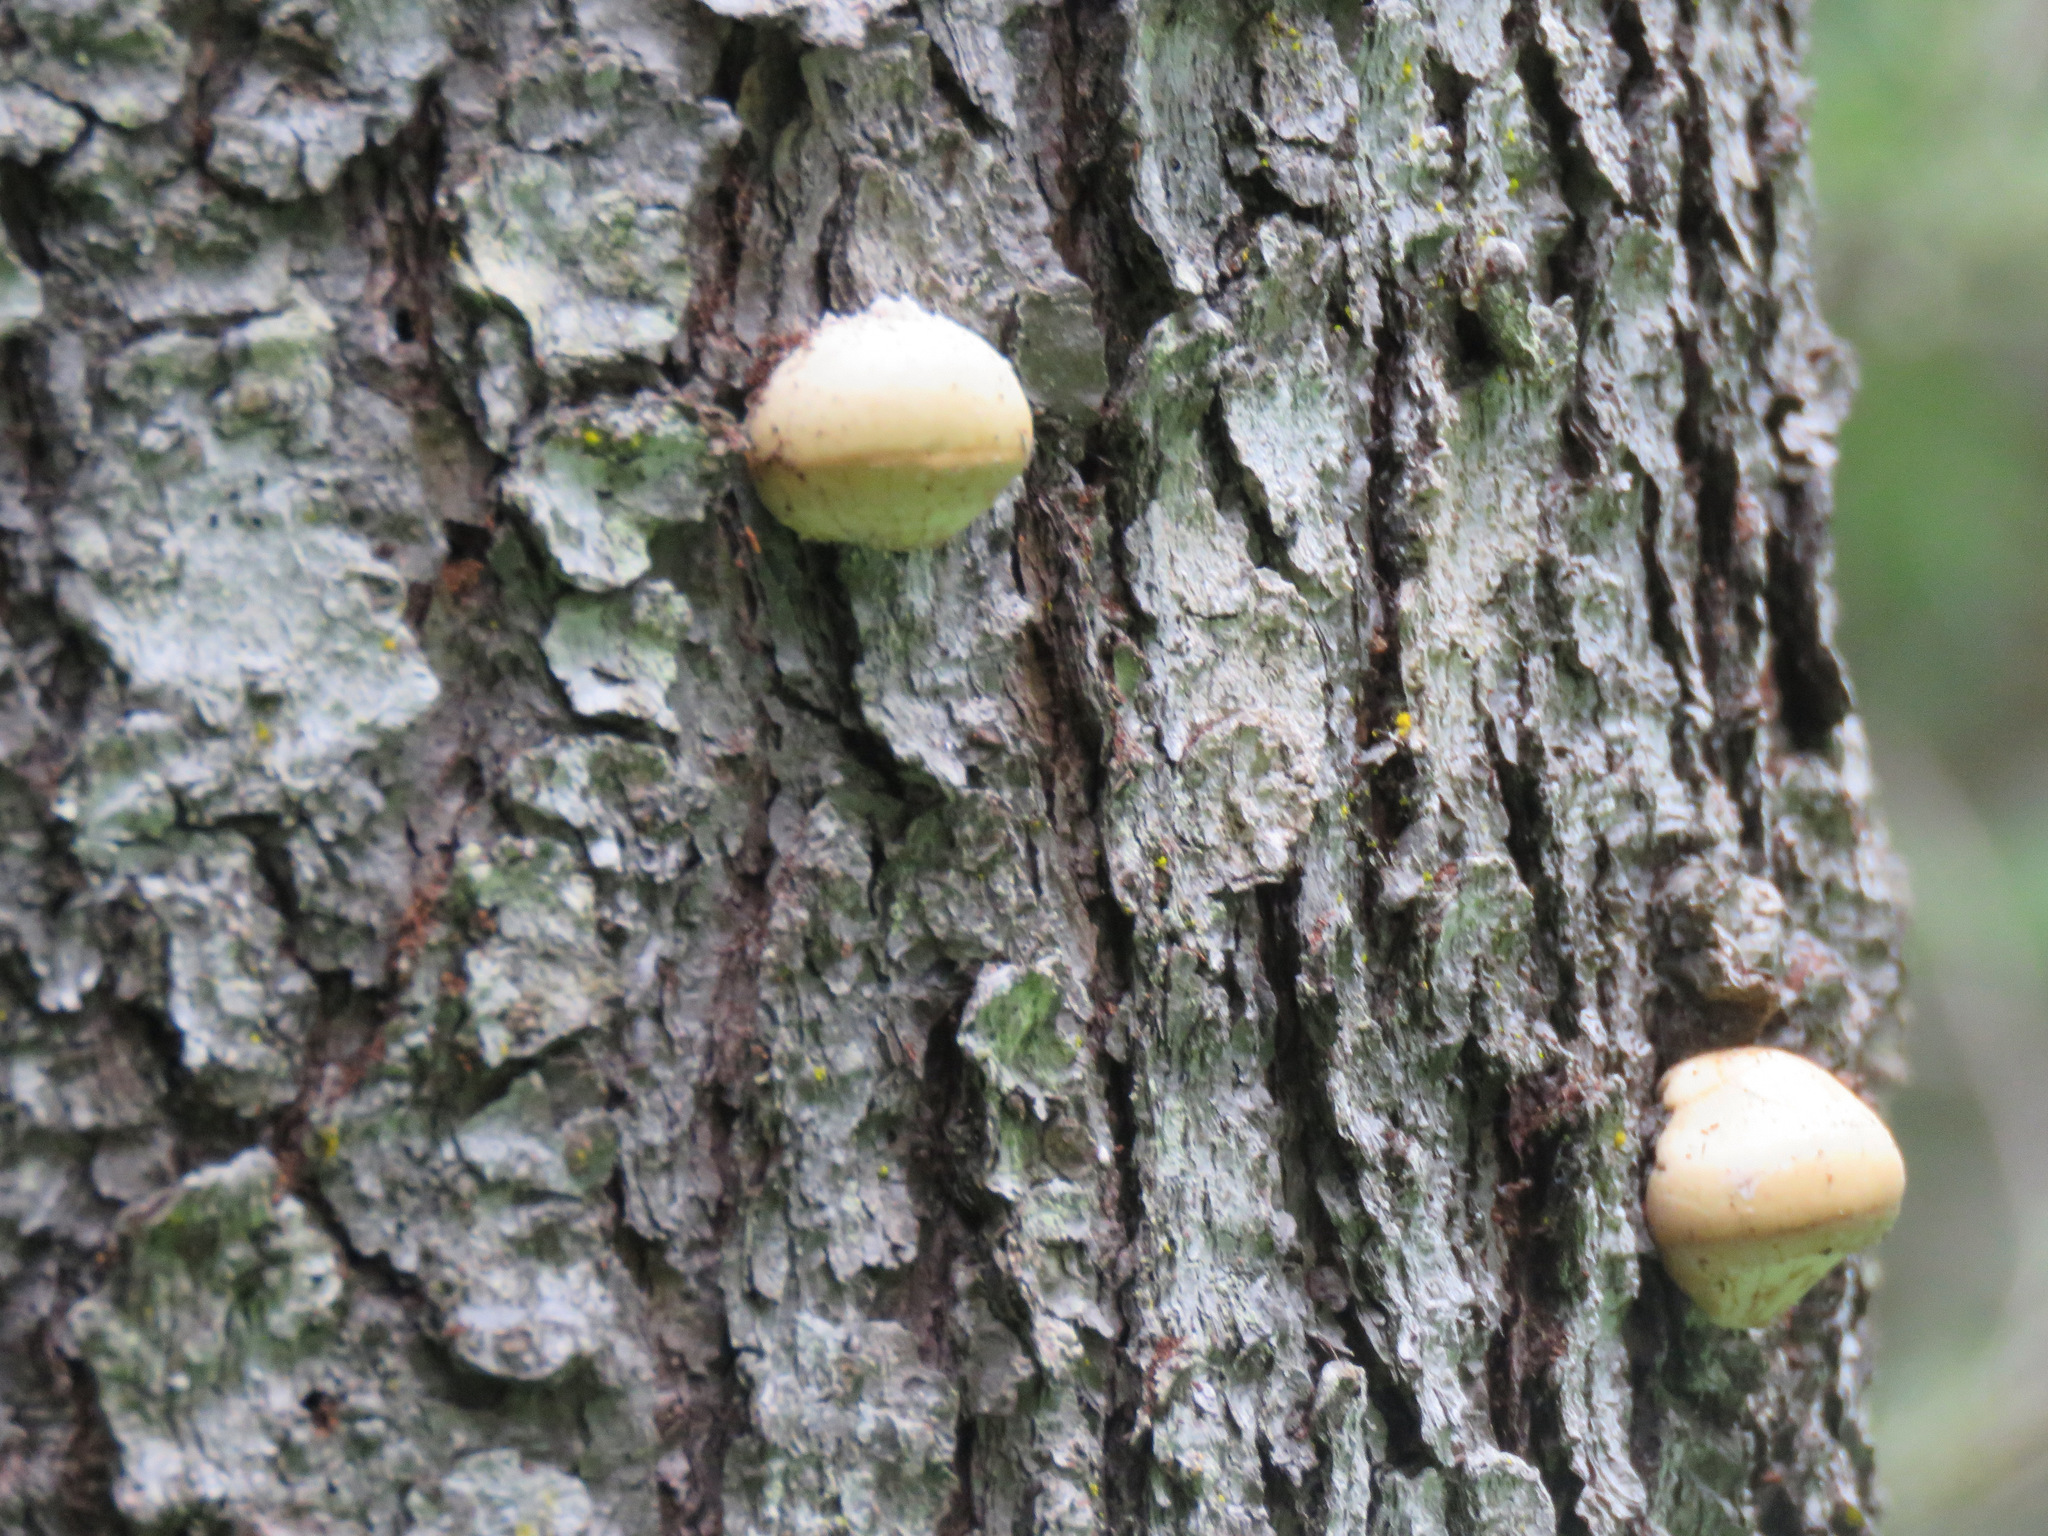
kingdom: Fungi
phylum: Basidiomycota
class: Agaricomycetes
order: Polyporales
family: Polyporaceae
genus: Cryptoporus
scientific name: Cryptoporus volvatus
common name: Veiled polypore
